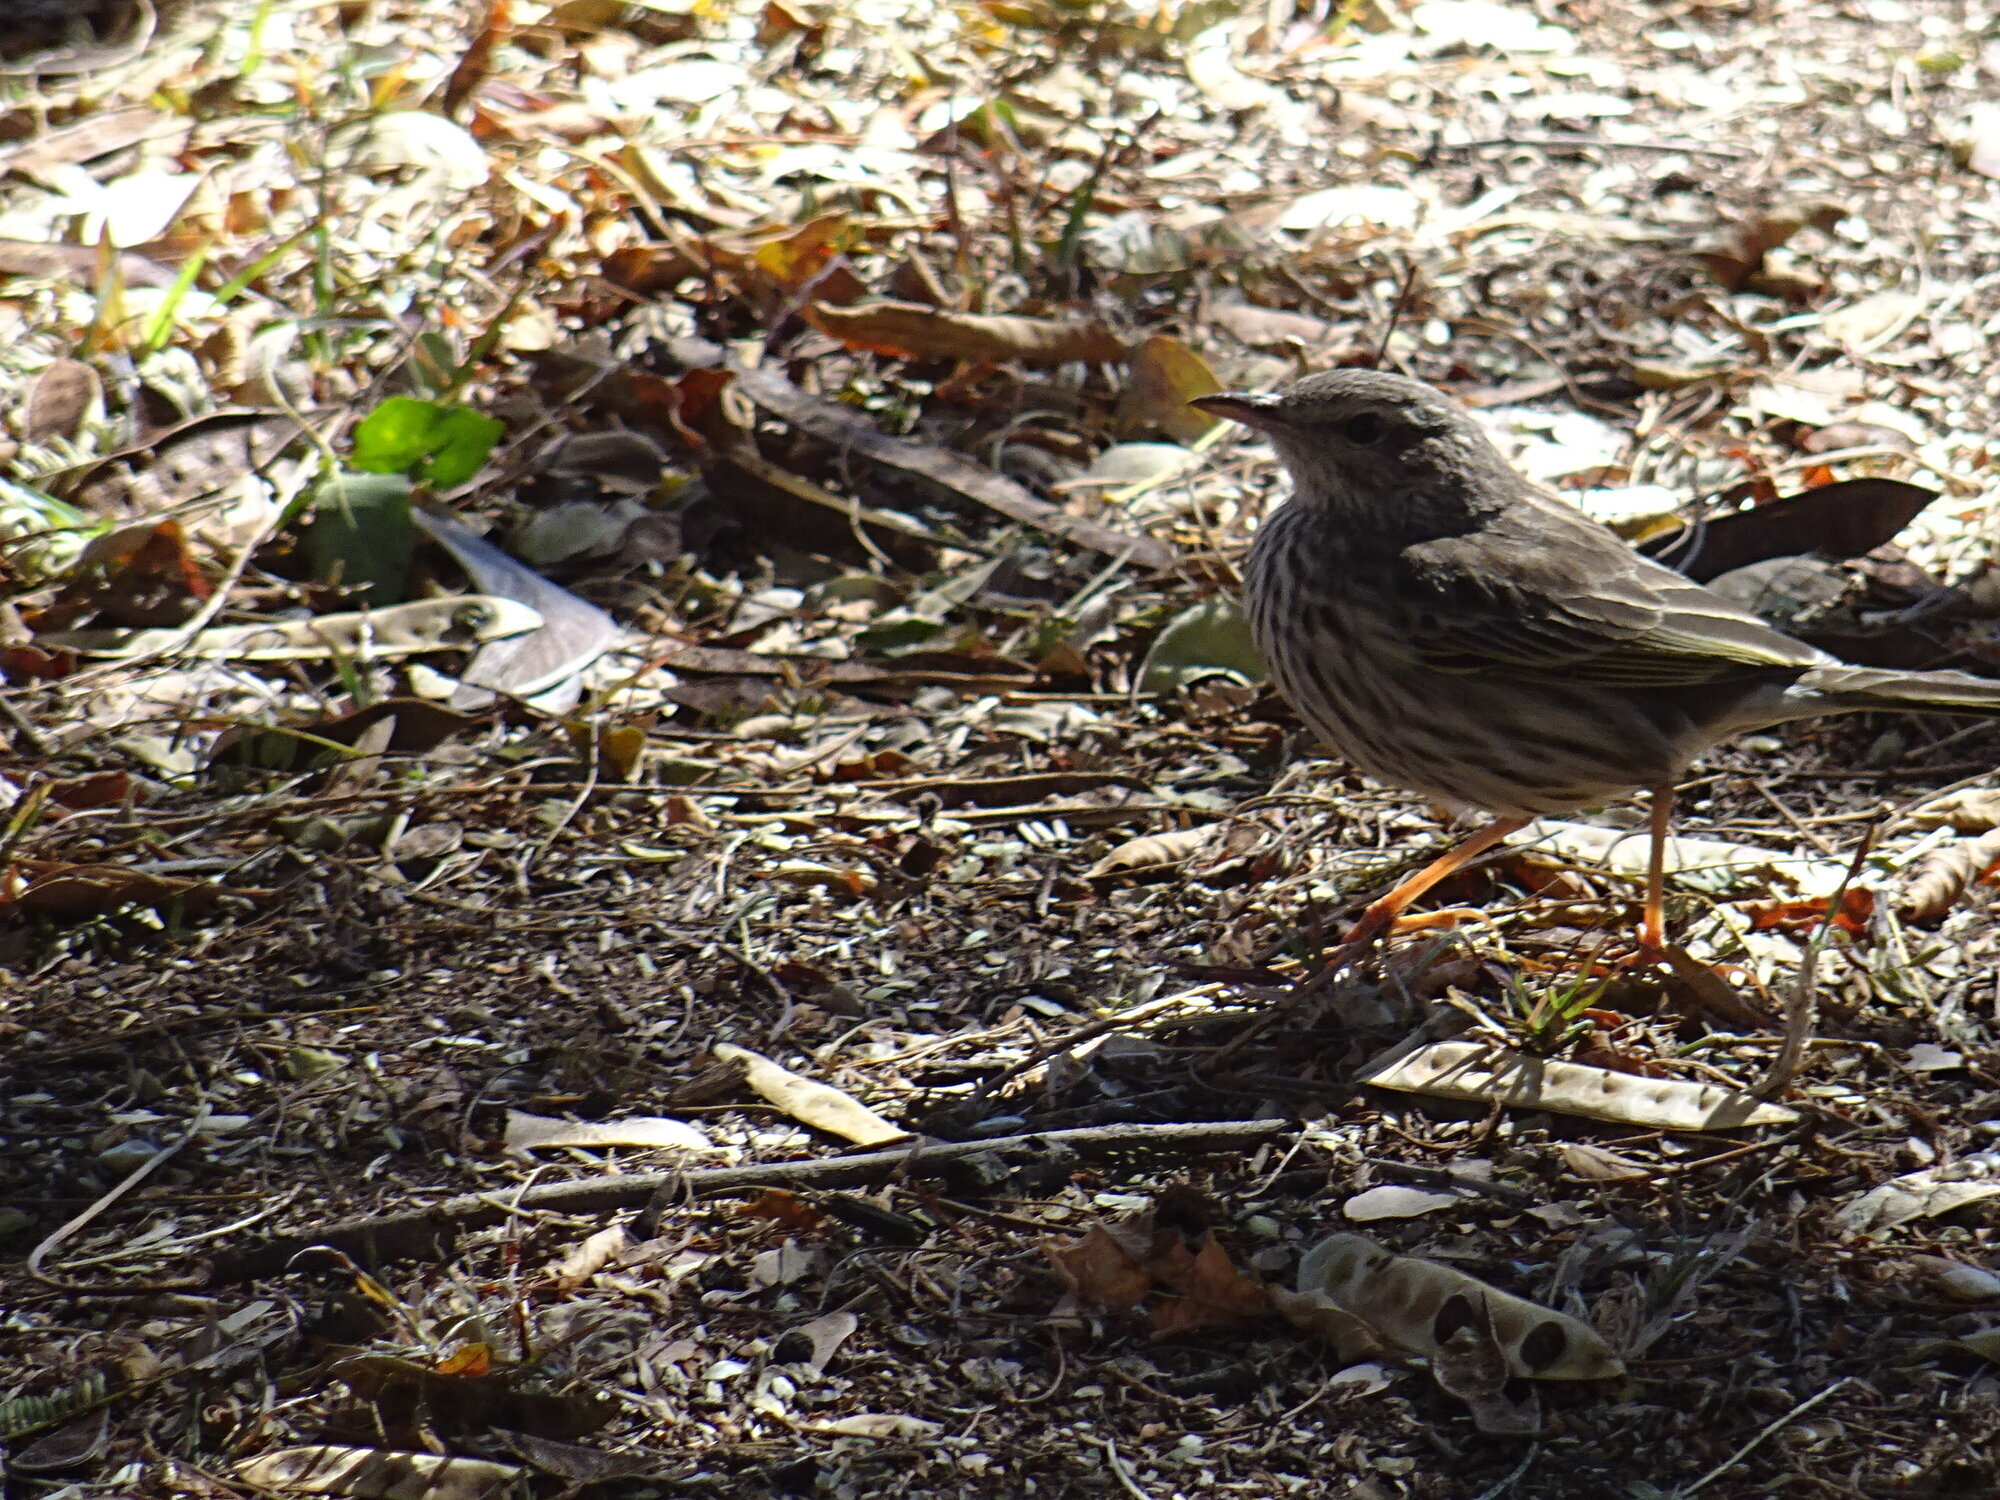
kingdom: Animalia
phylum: Chordata
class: Aves
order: Passeriformes
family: Motacillidae
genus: Anthus
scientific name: Anthus lineiventris
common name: Striped pipit
